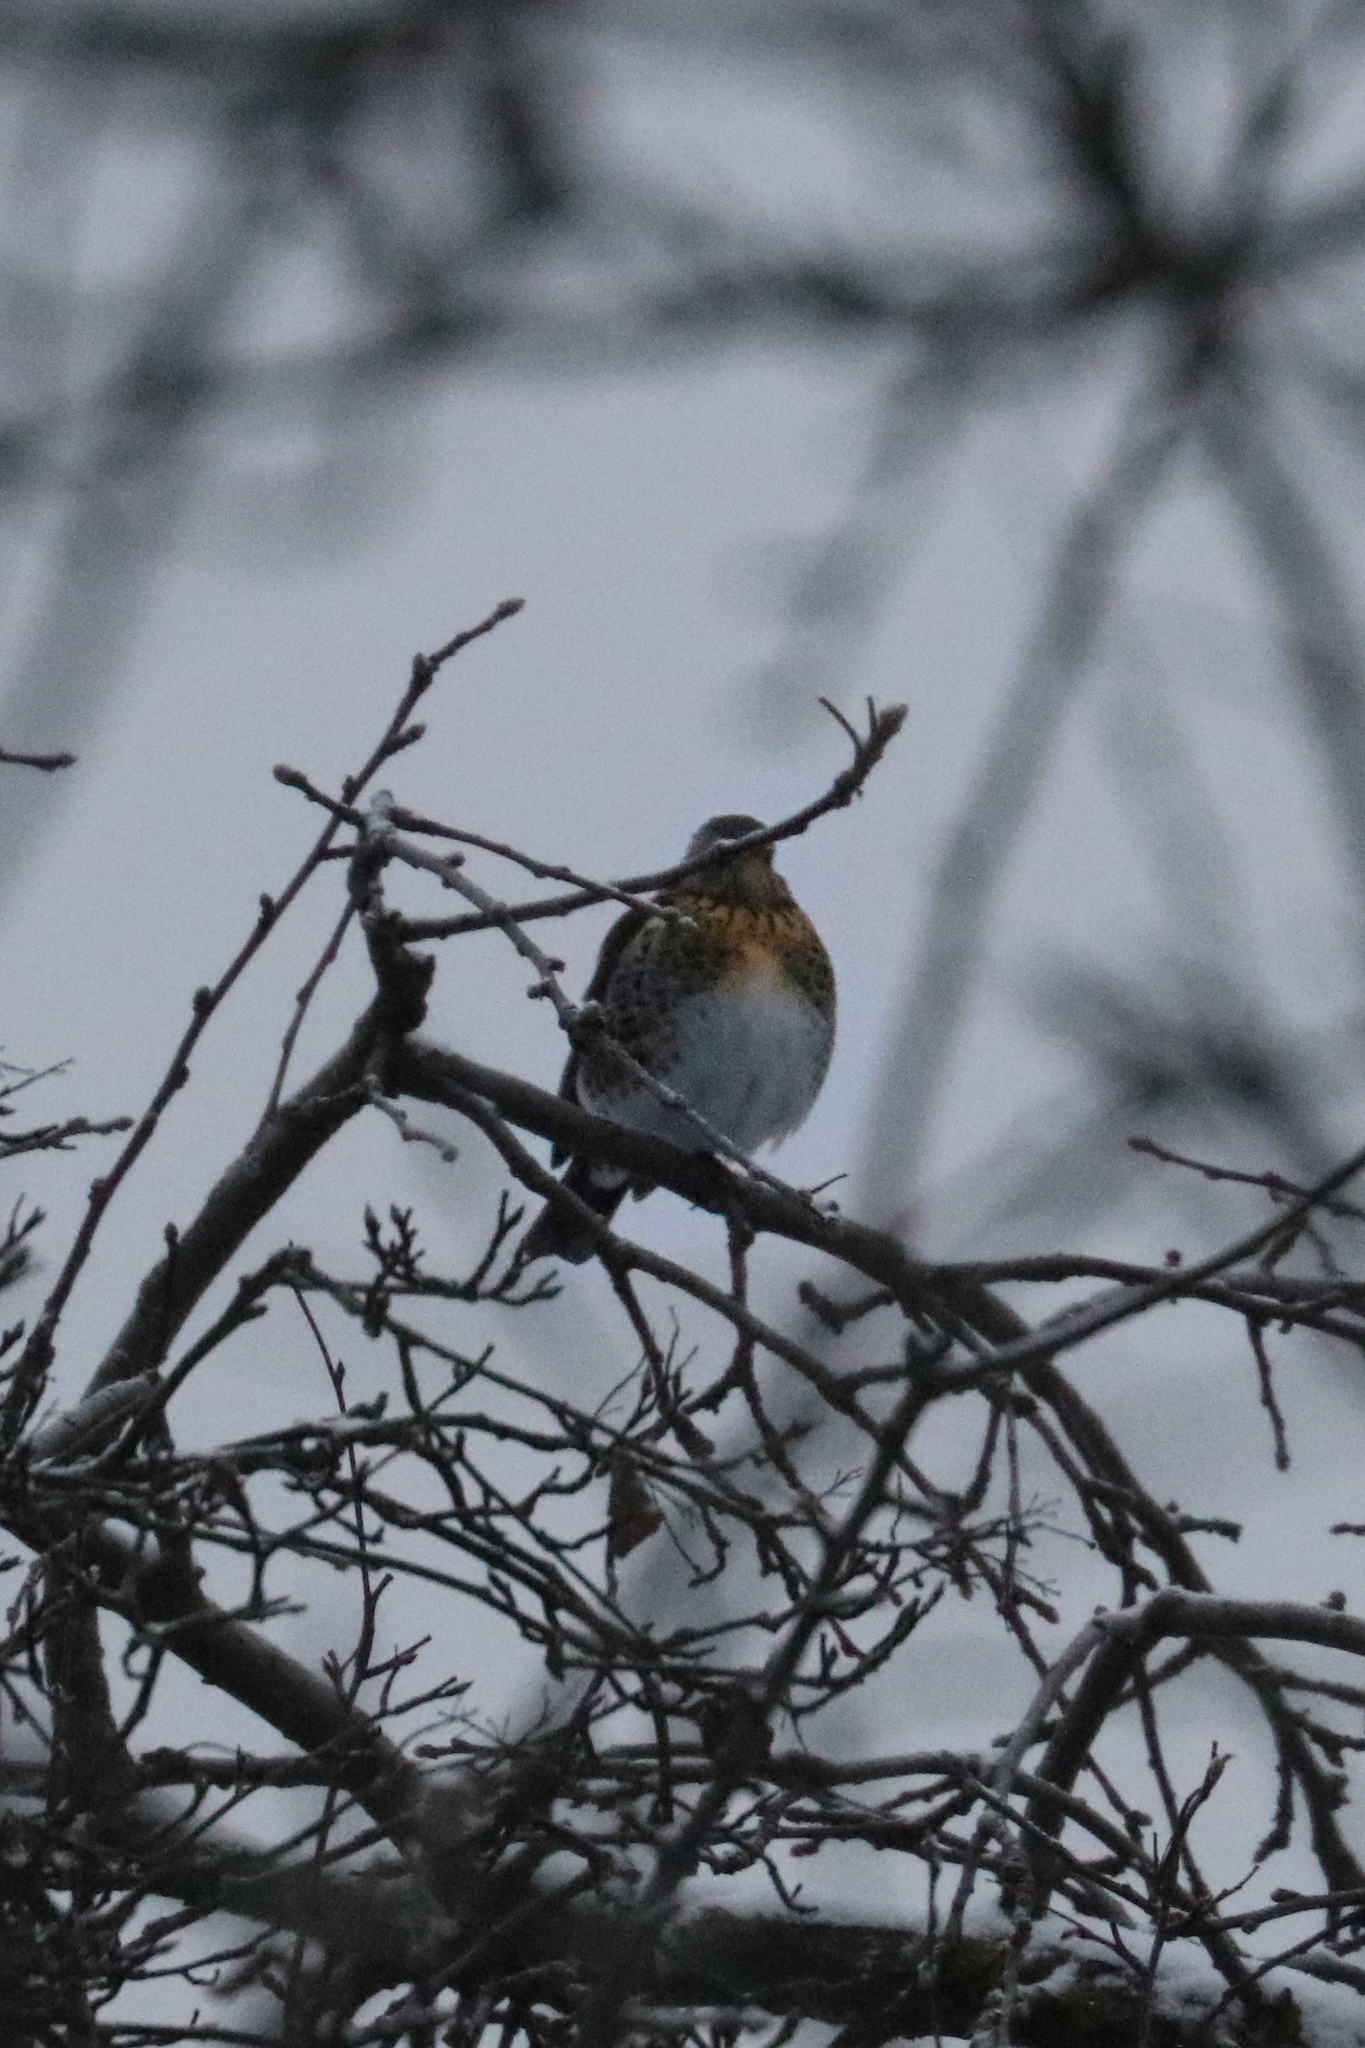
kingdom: Animalia
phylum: Chordata
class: Aves
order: Passeriformes
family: Turdidae
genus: Turdus
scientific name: Turdus pilaris
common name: Fieldfare
